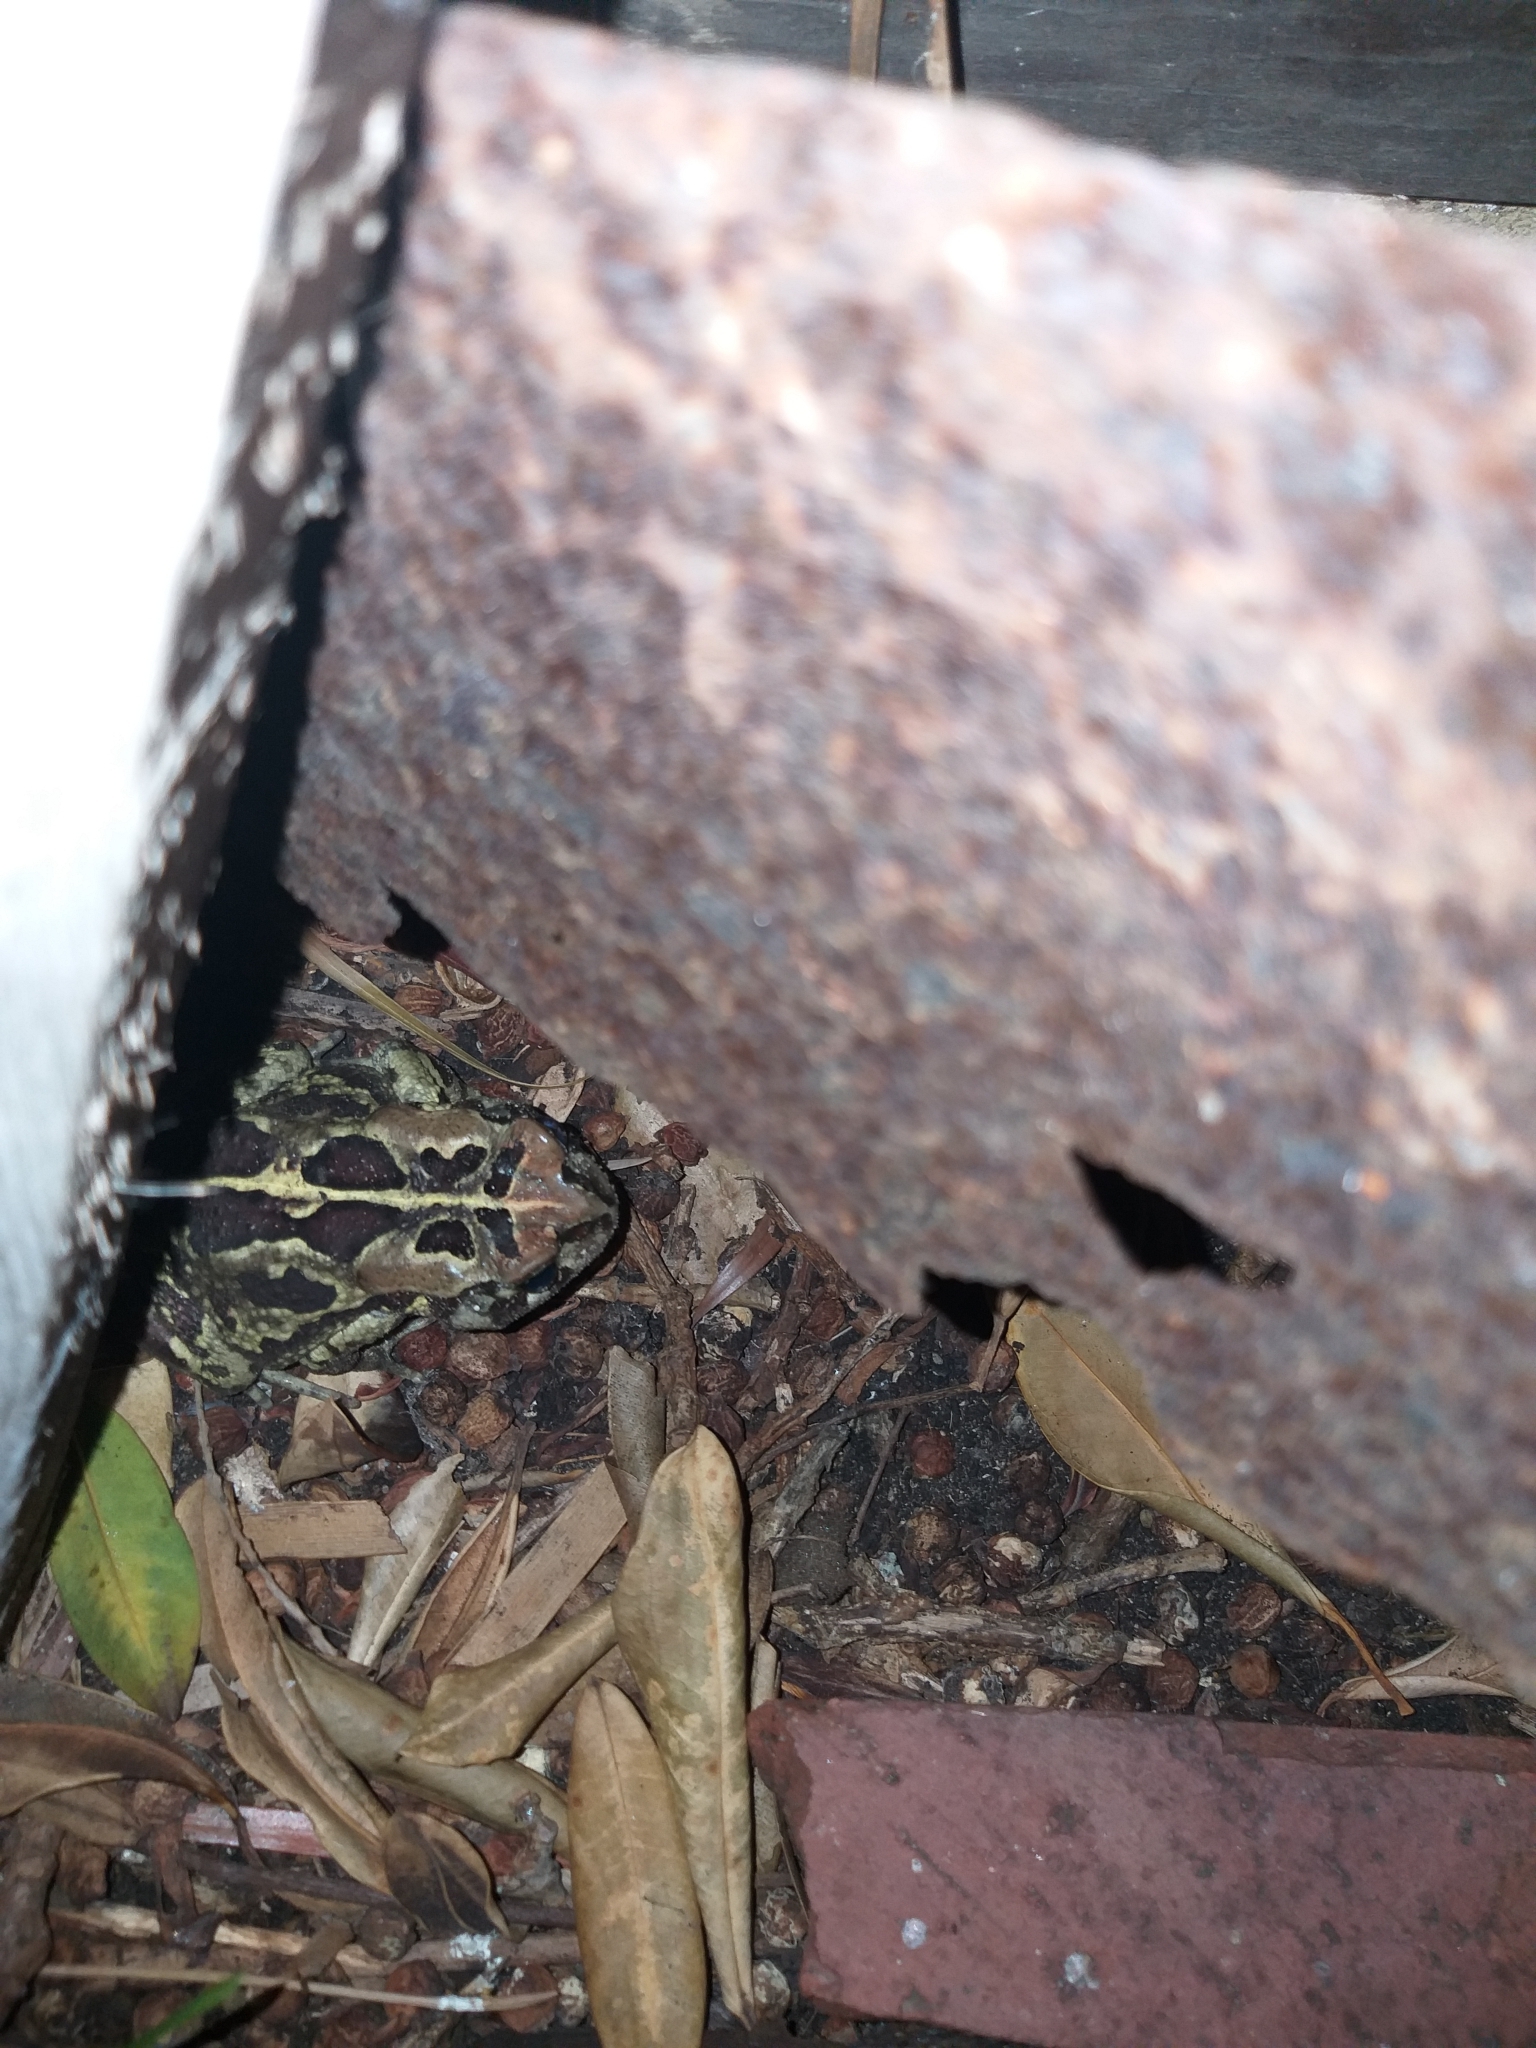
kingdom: Animalia
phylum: Chordata
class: Amphibia
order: Anura
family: Bufonidae
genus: Sclerophrys
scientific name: Sclerophrys pantherina
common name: Panther toad
